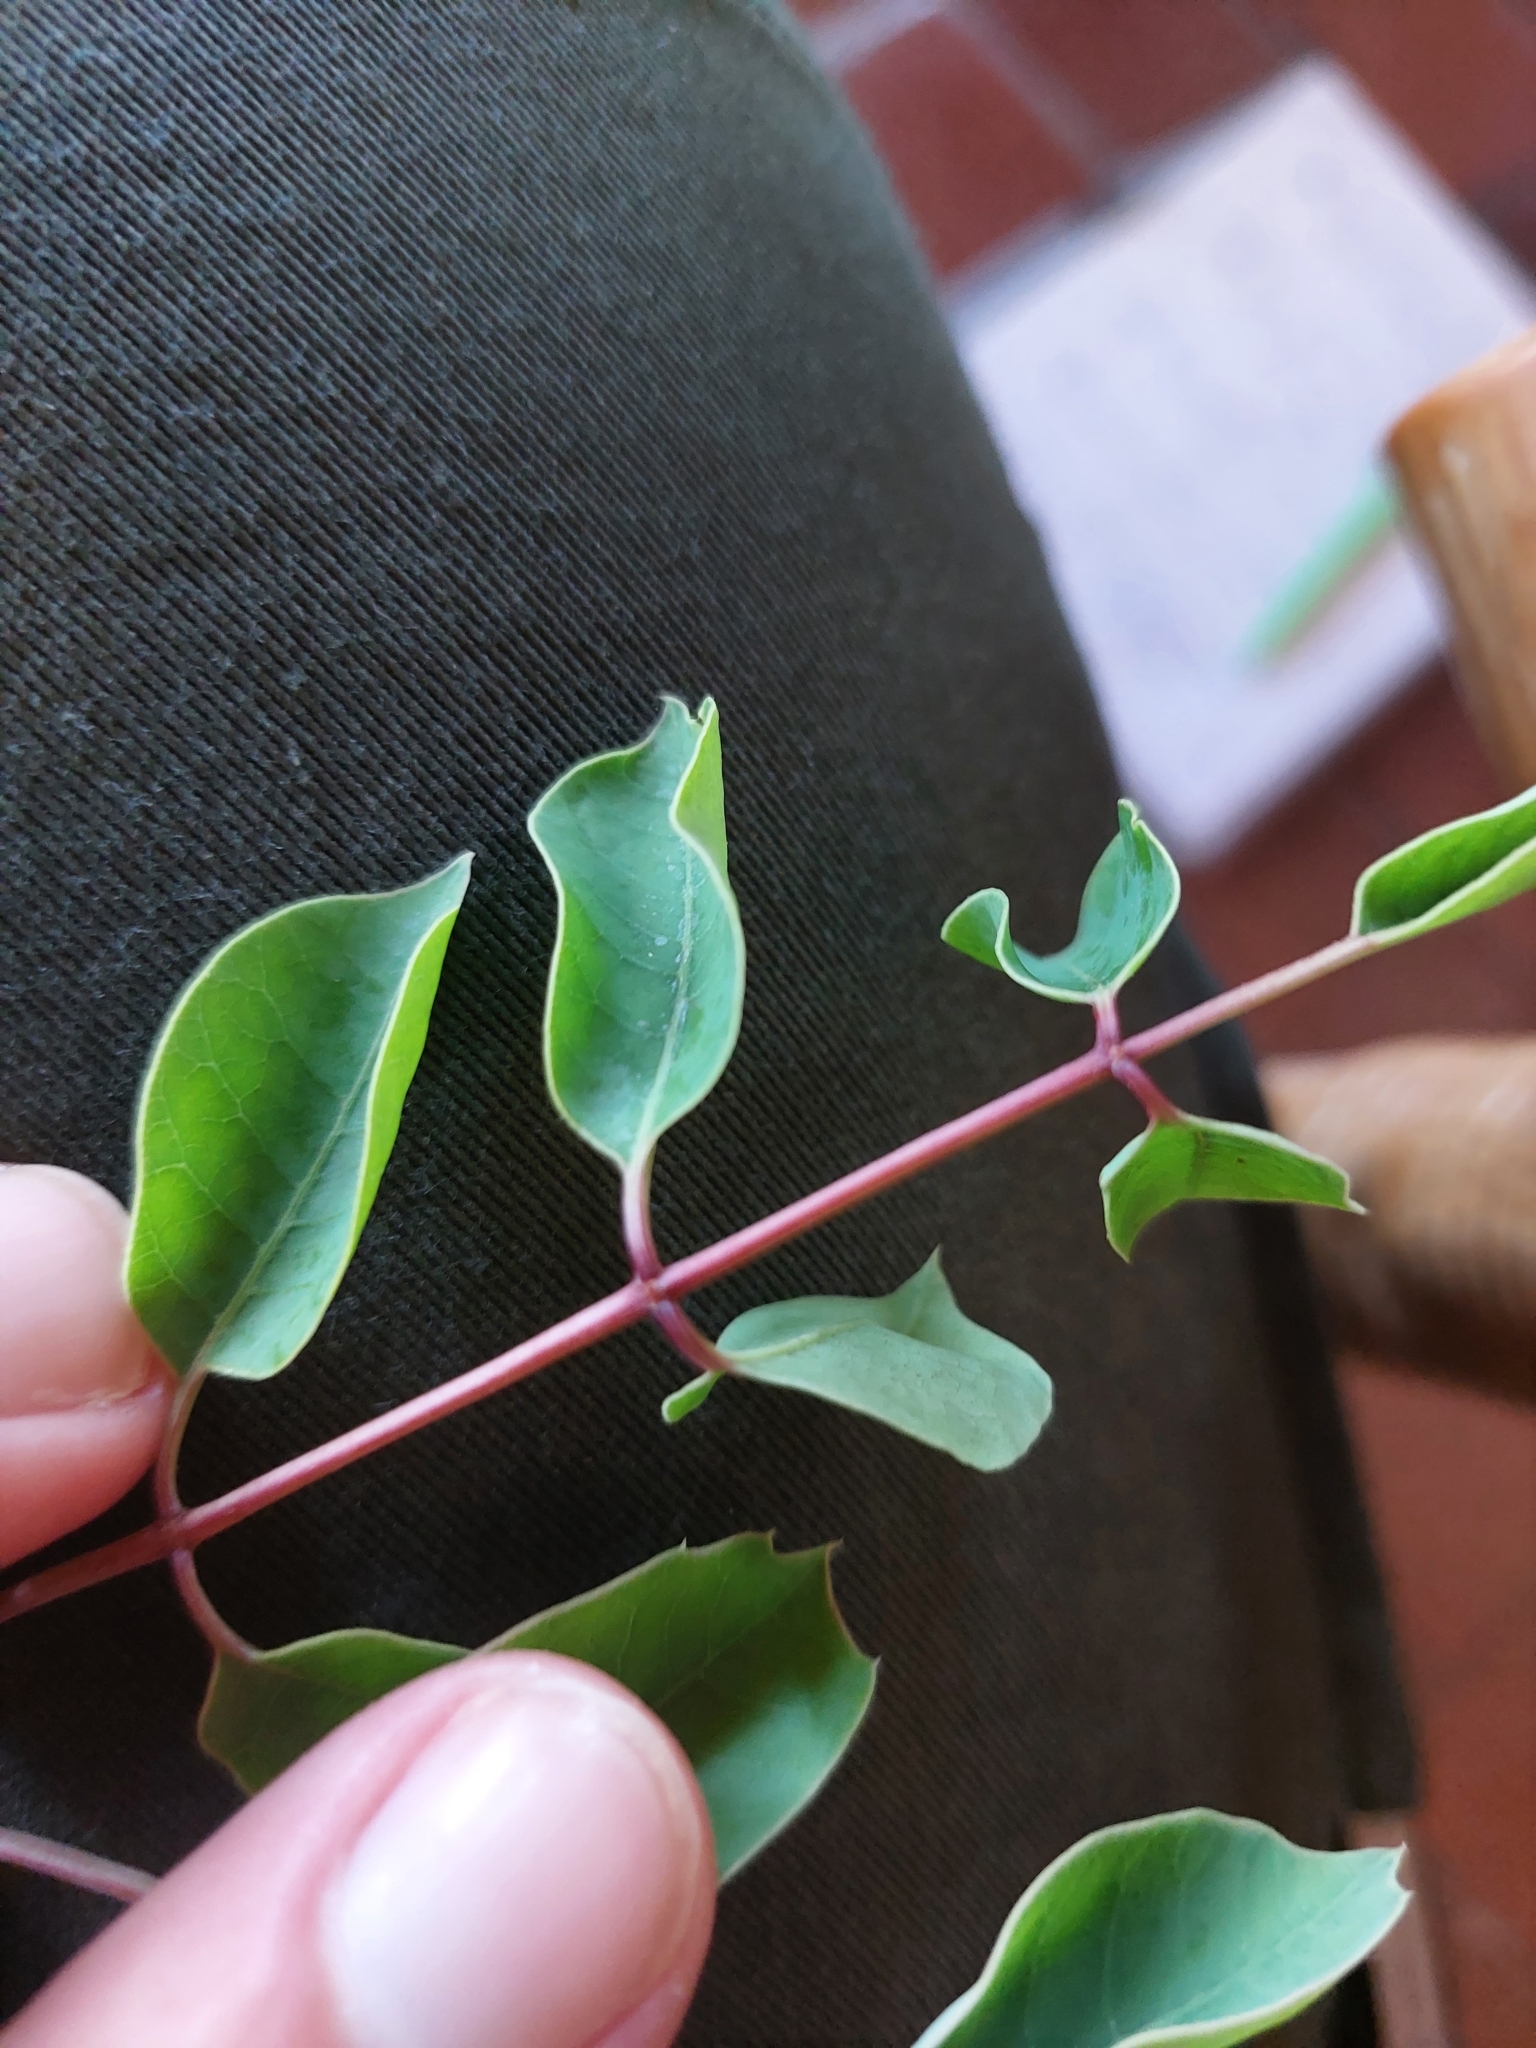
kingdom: Plantae
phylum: Tracheophyta
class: Magnoliopsida
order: Sapindales
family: Anacardiaceae
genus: Sclerocarya
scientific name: Sclerocarya birrea
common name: Marula
